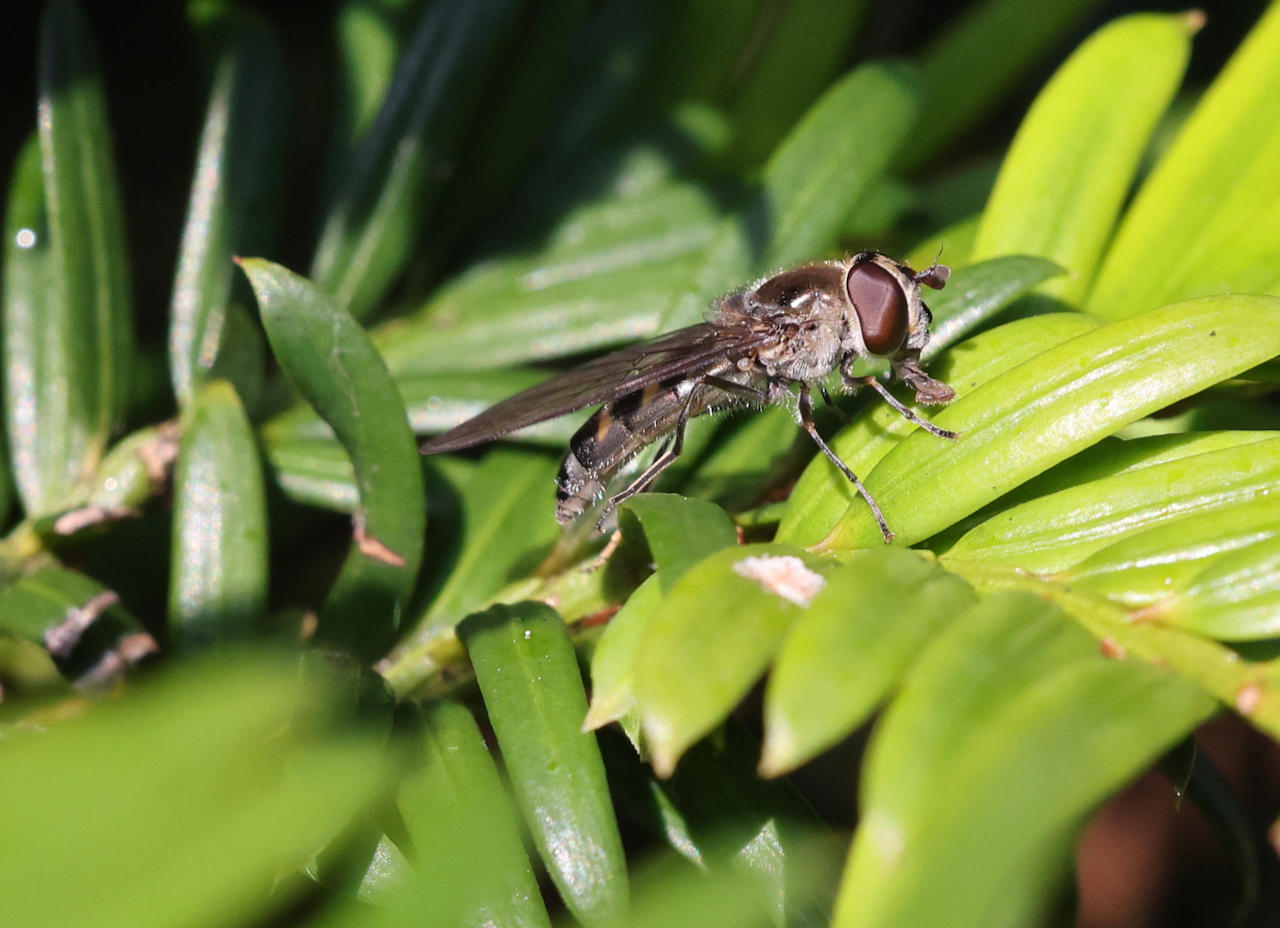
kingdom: Animalia
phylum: Arthropoda
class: Insecta
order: Diptera
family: Syrphidae
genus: Meliscaeva
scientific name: Meliscaeva auricollis
